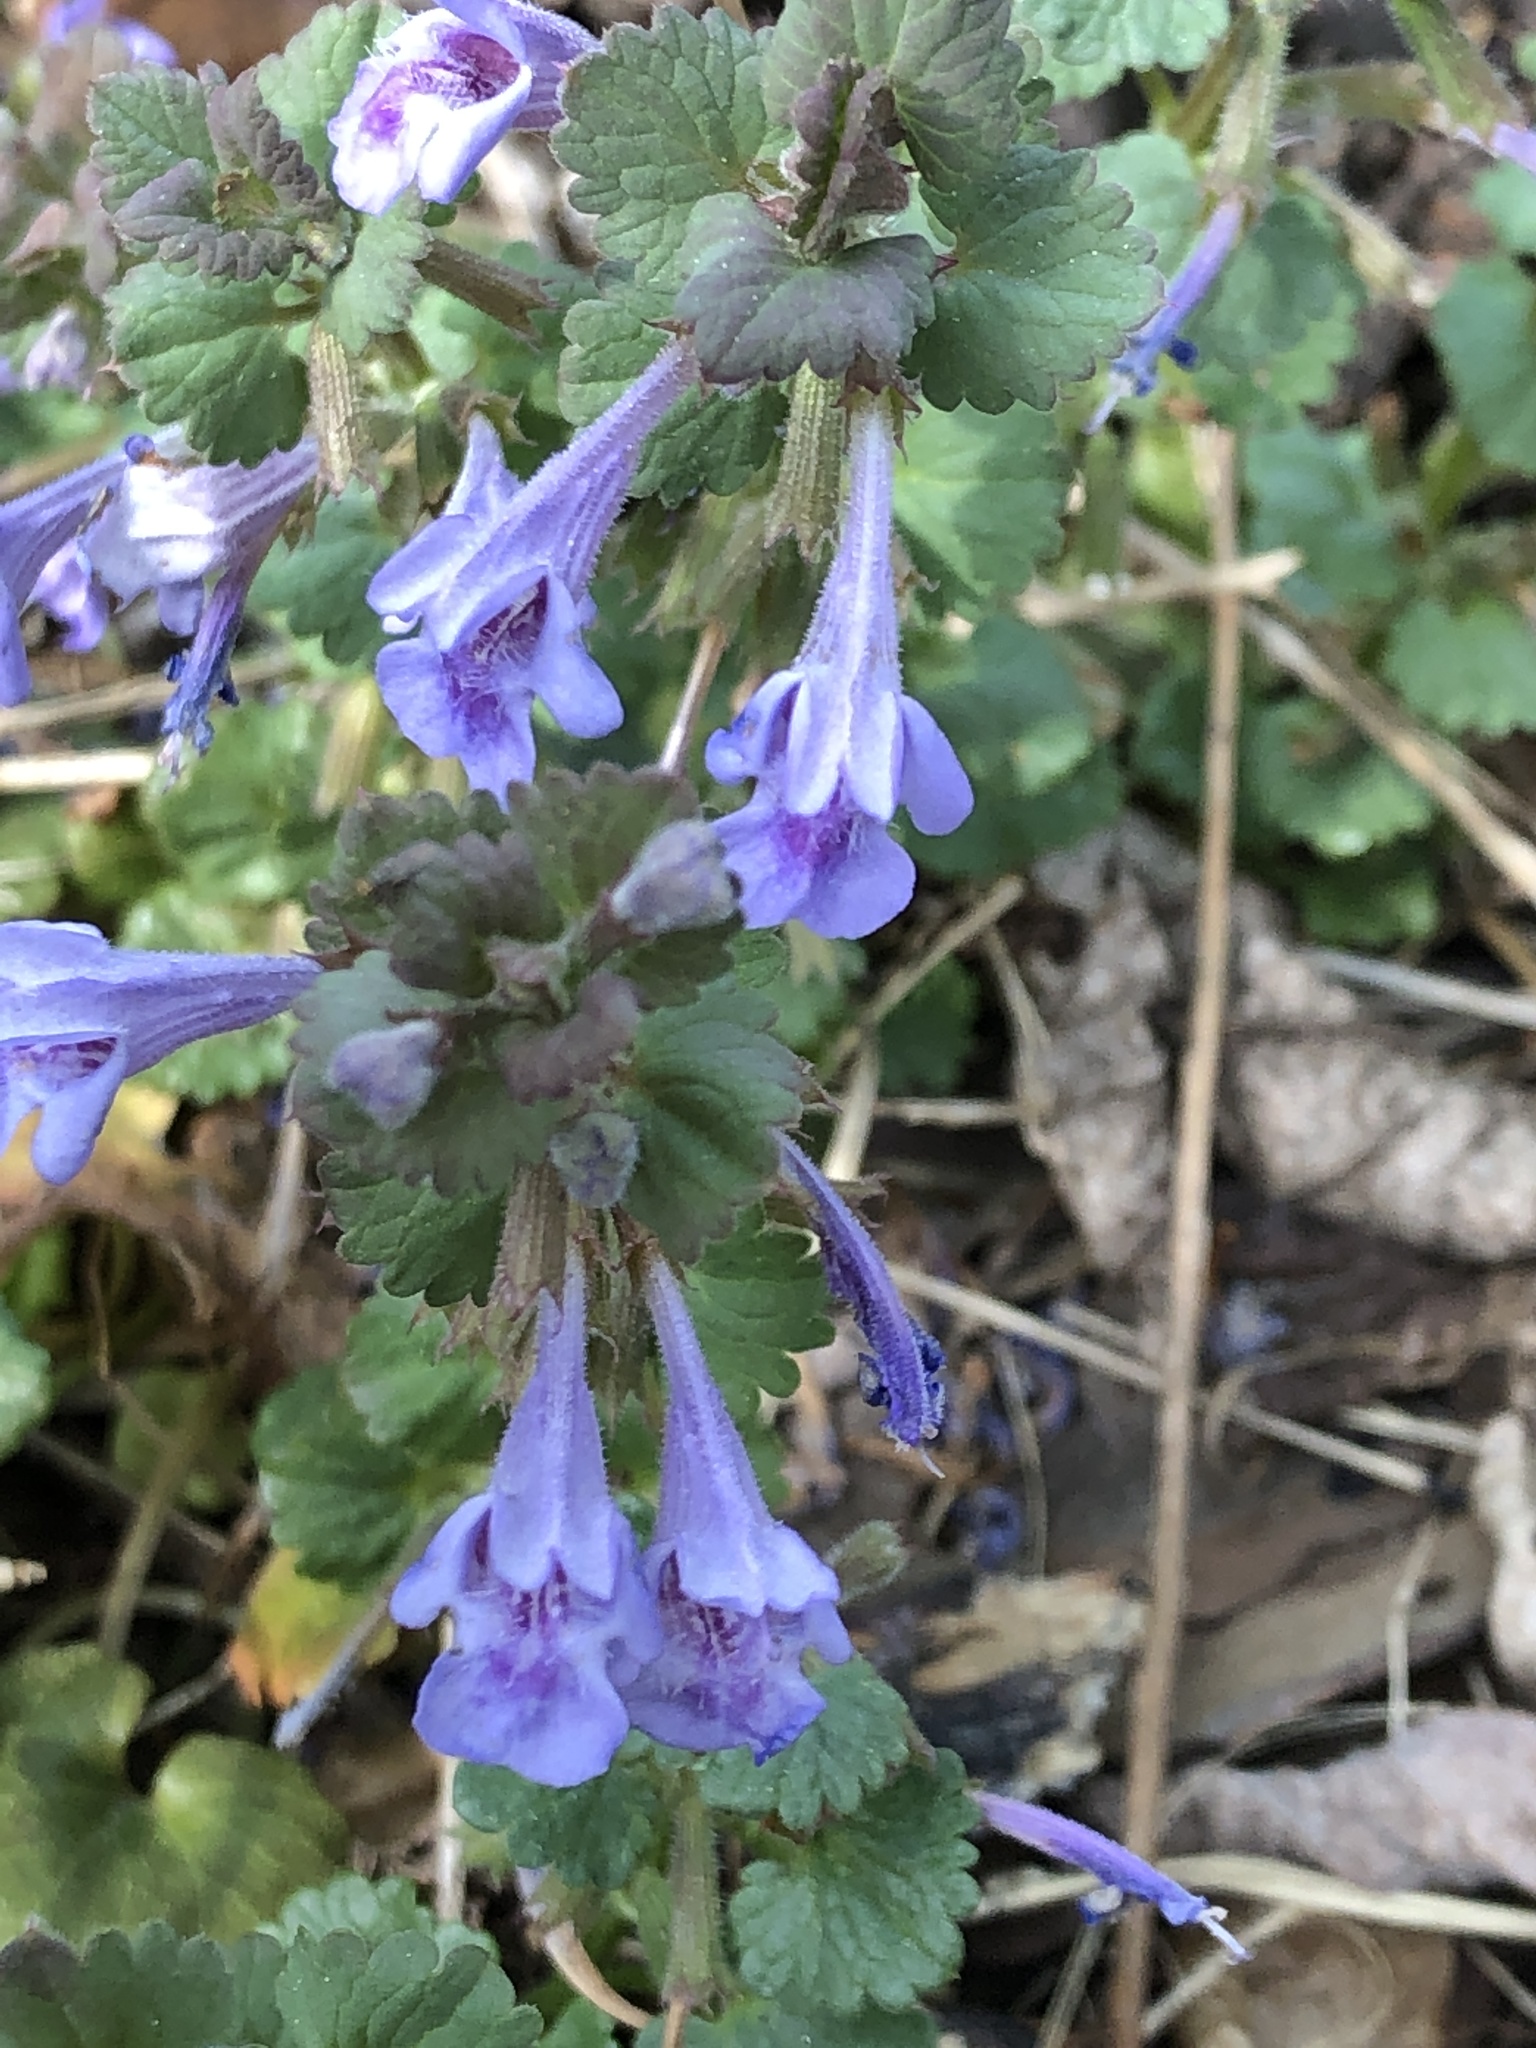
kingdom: Plantae
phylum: Tracheophyta
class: Magnoliopsida
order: Lamiales
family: Lamiaceae
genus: Glechoma
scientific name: Glechoma hederacea
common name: Ground ivy
